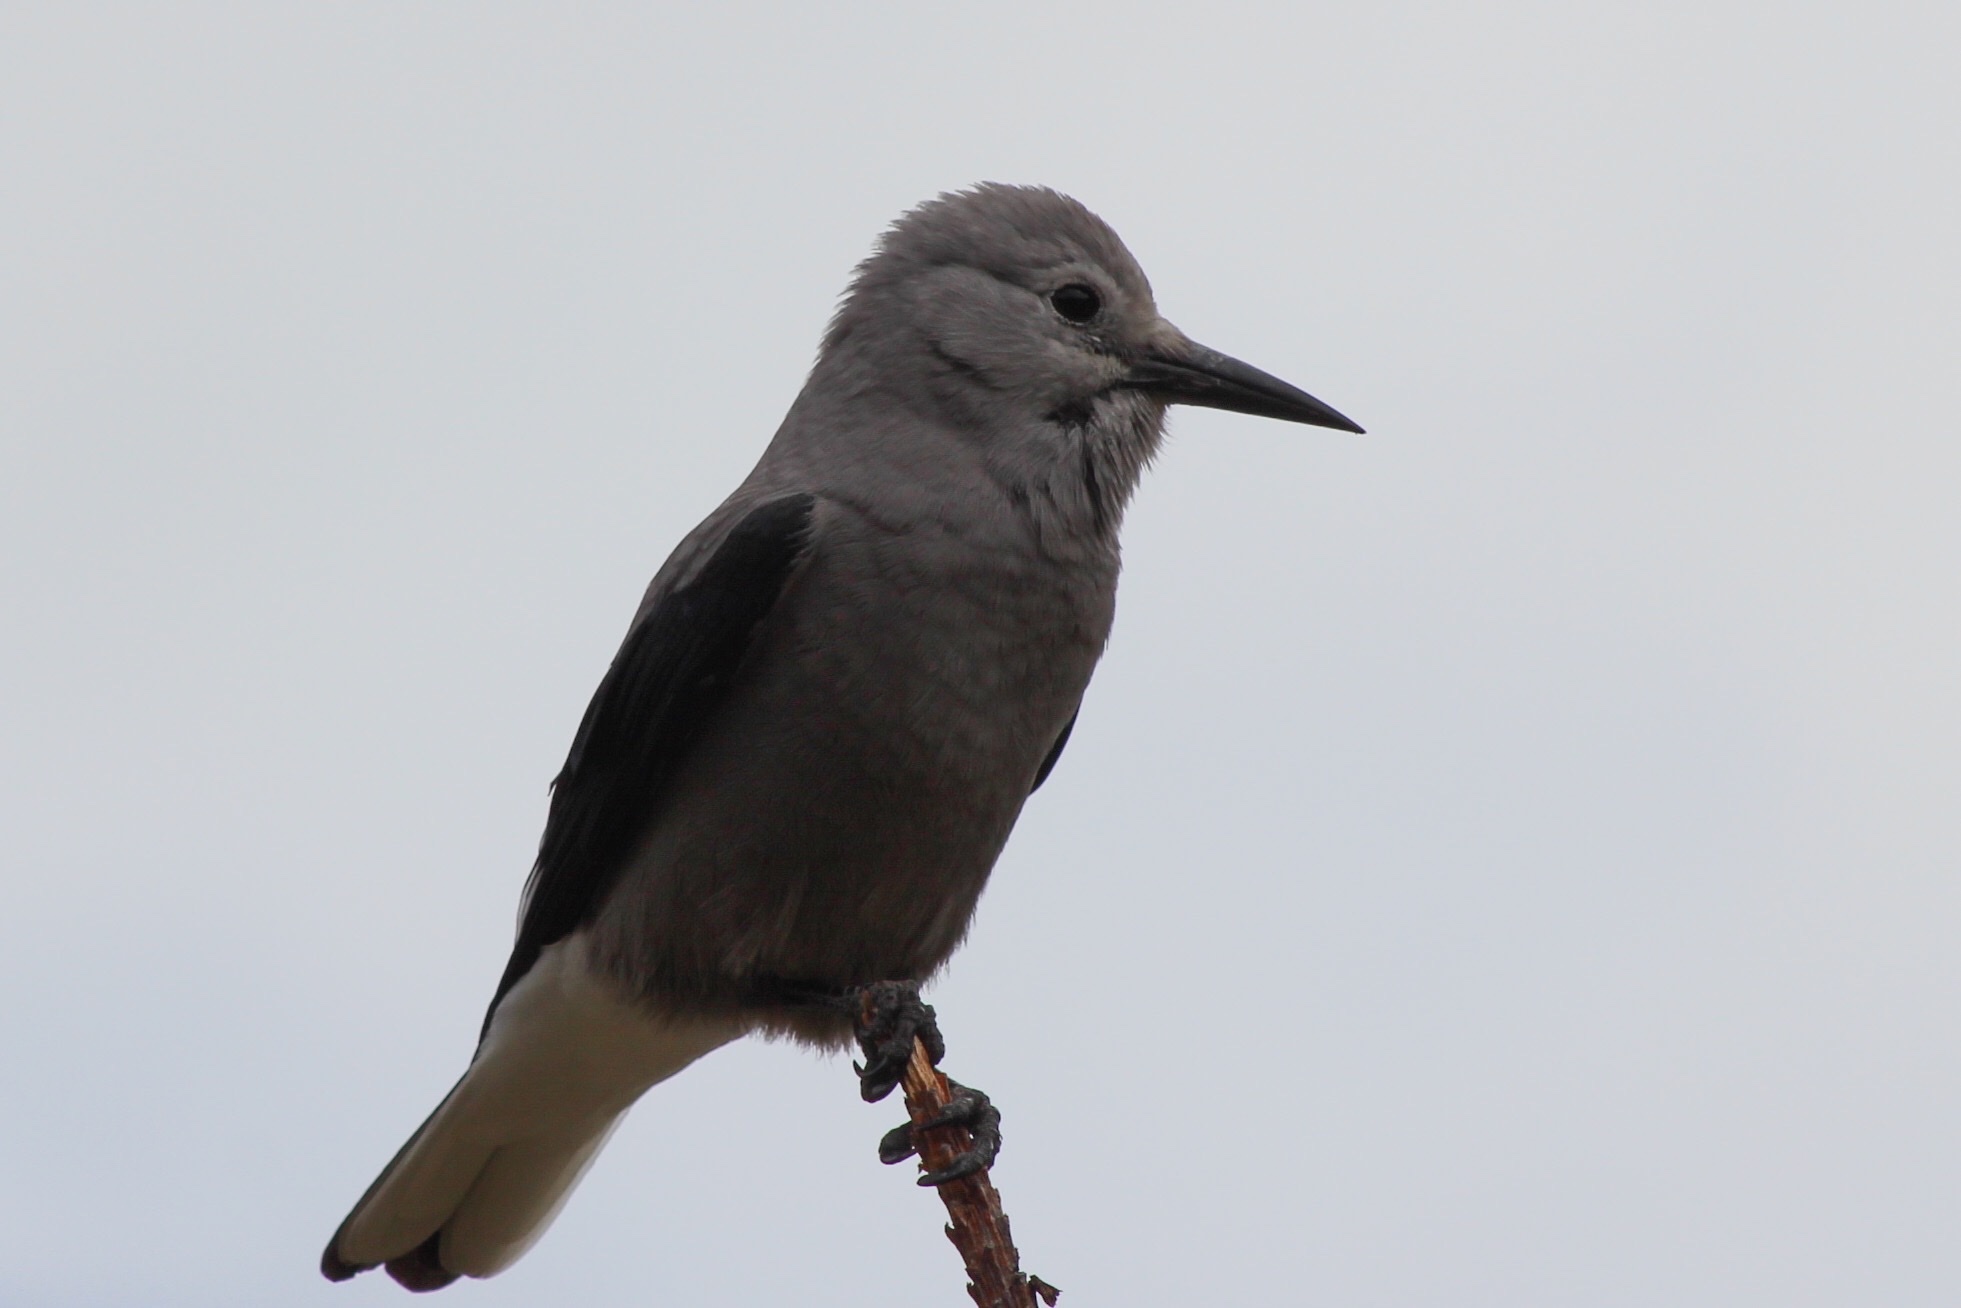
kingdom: Animalia
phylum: Chordata
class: Aves
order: Passeriformes
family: Corvidae
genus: Nucifraga
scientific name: Nucifraga columbiana
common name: Clark's nutcracker
